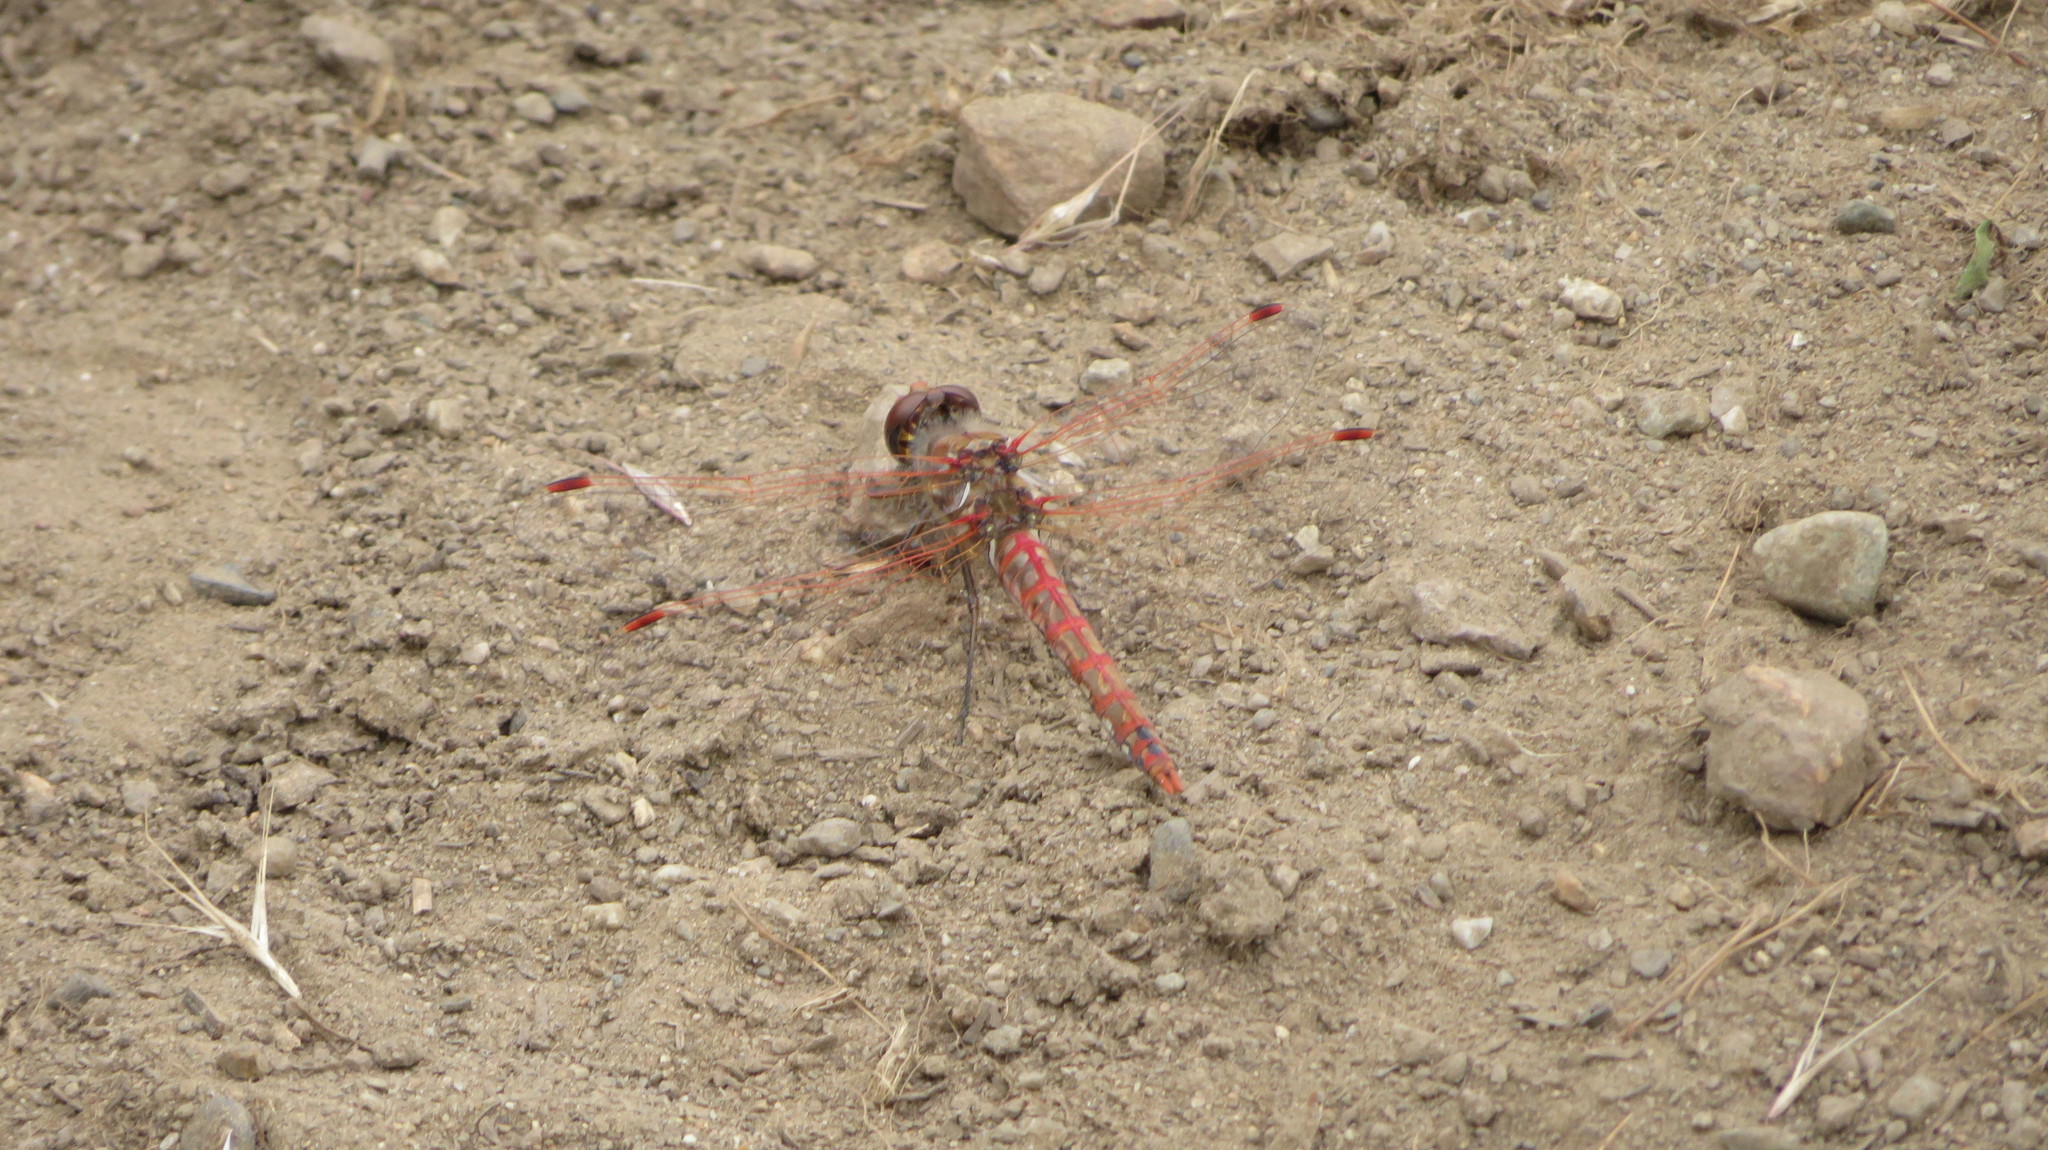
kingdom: Animalia
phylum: Arthropoda
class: Insecta
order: Odonata
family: Libellulidae
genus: Sympetrum
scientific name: Sympetrum corruptum
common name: Variegated meadowhawk
